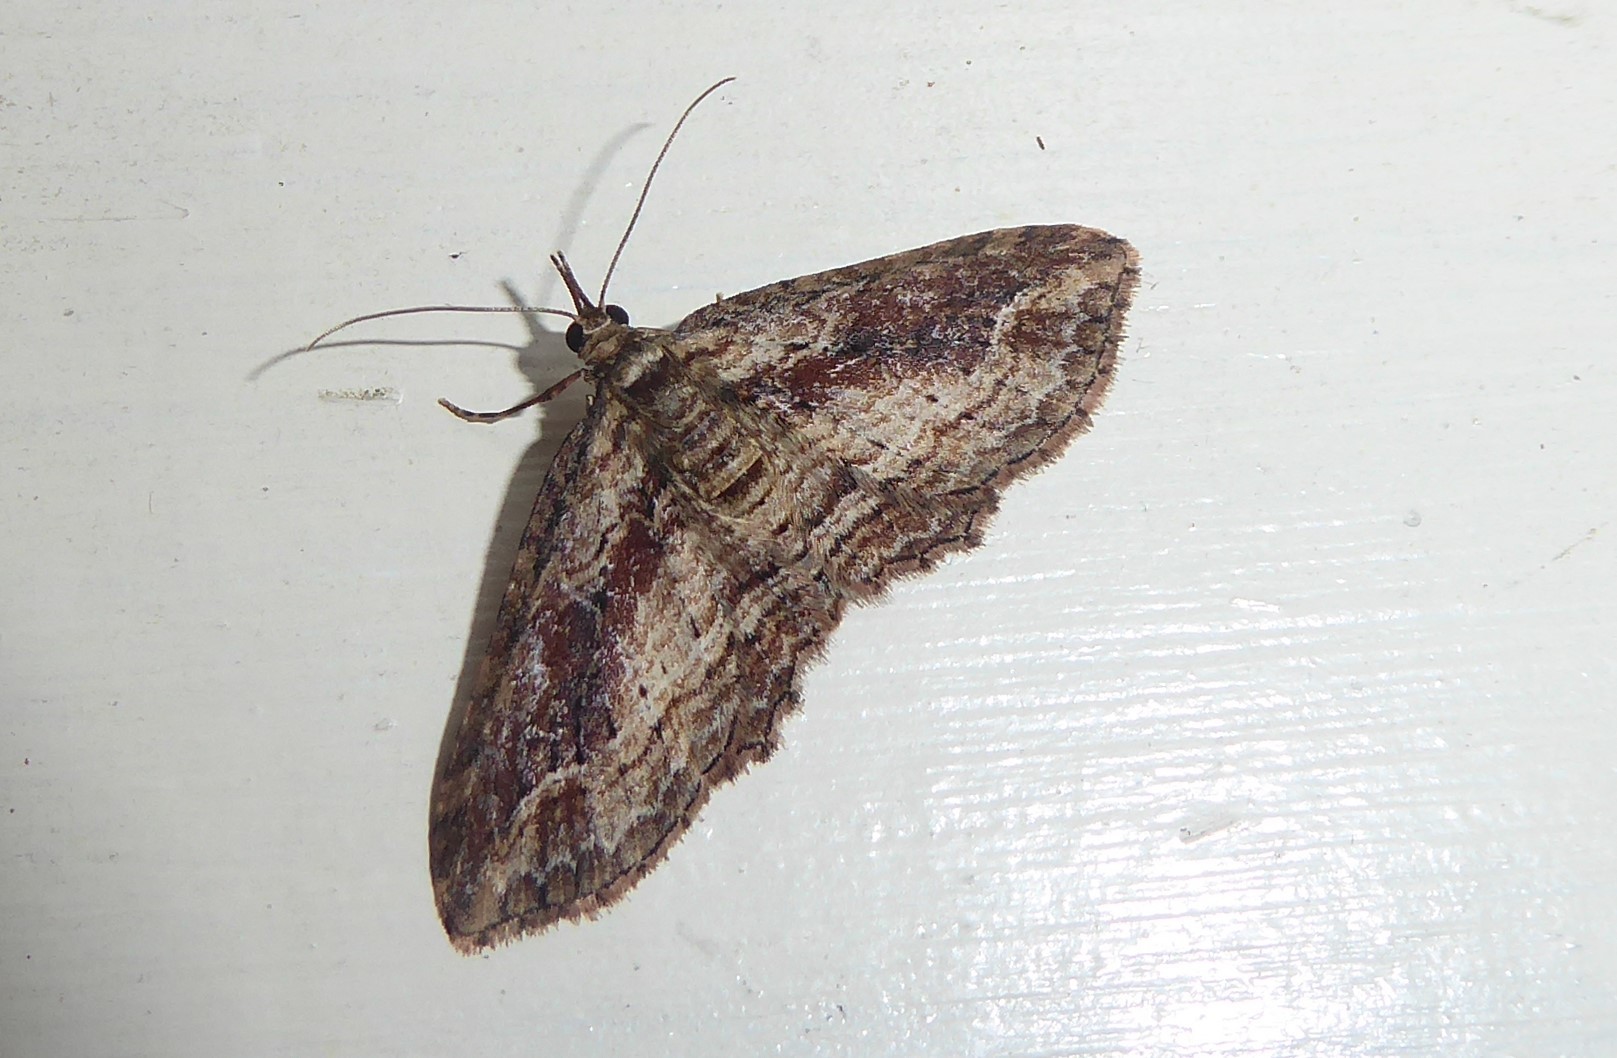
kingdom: Animalia
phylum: Arthropoda
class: Insecta
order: Lepidoptera
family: Geometridae
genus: Chloroclystis
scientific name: Chloroclystis filata
